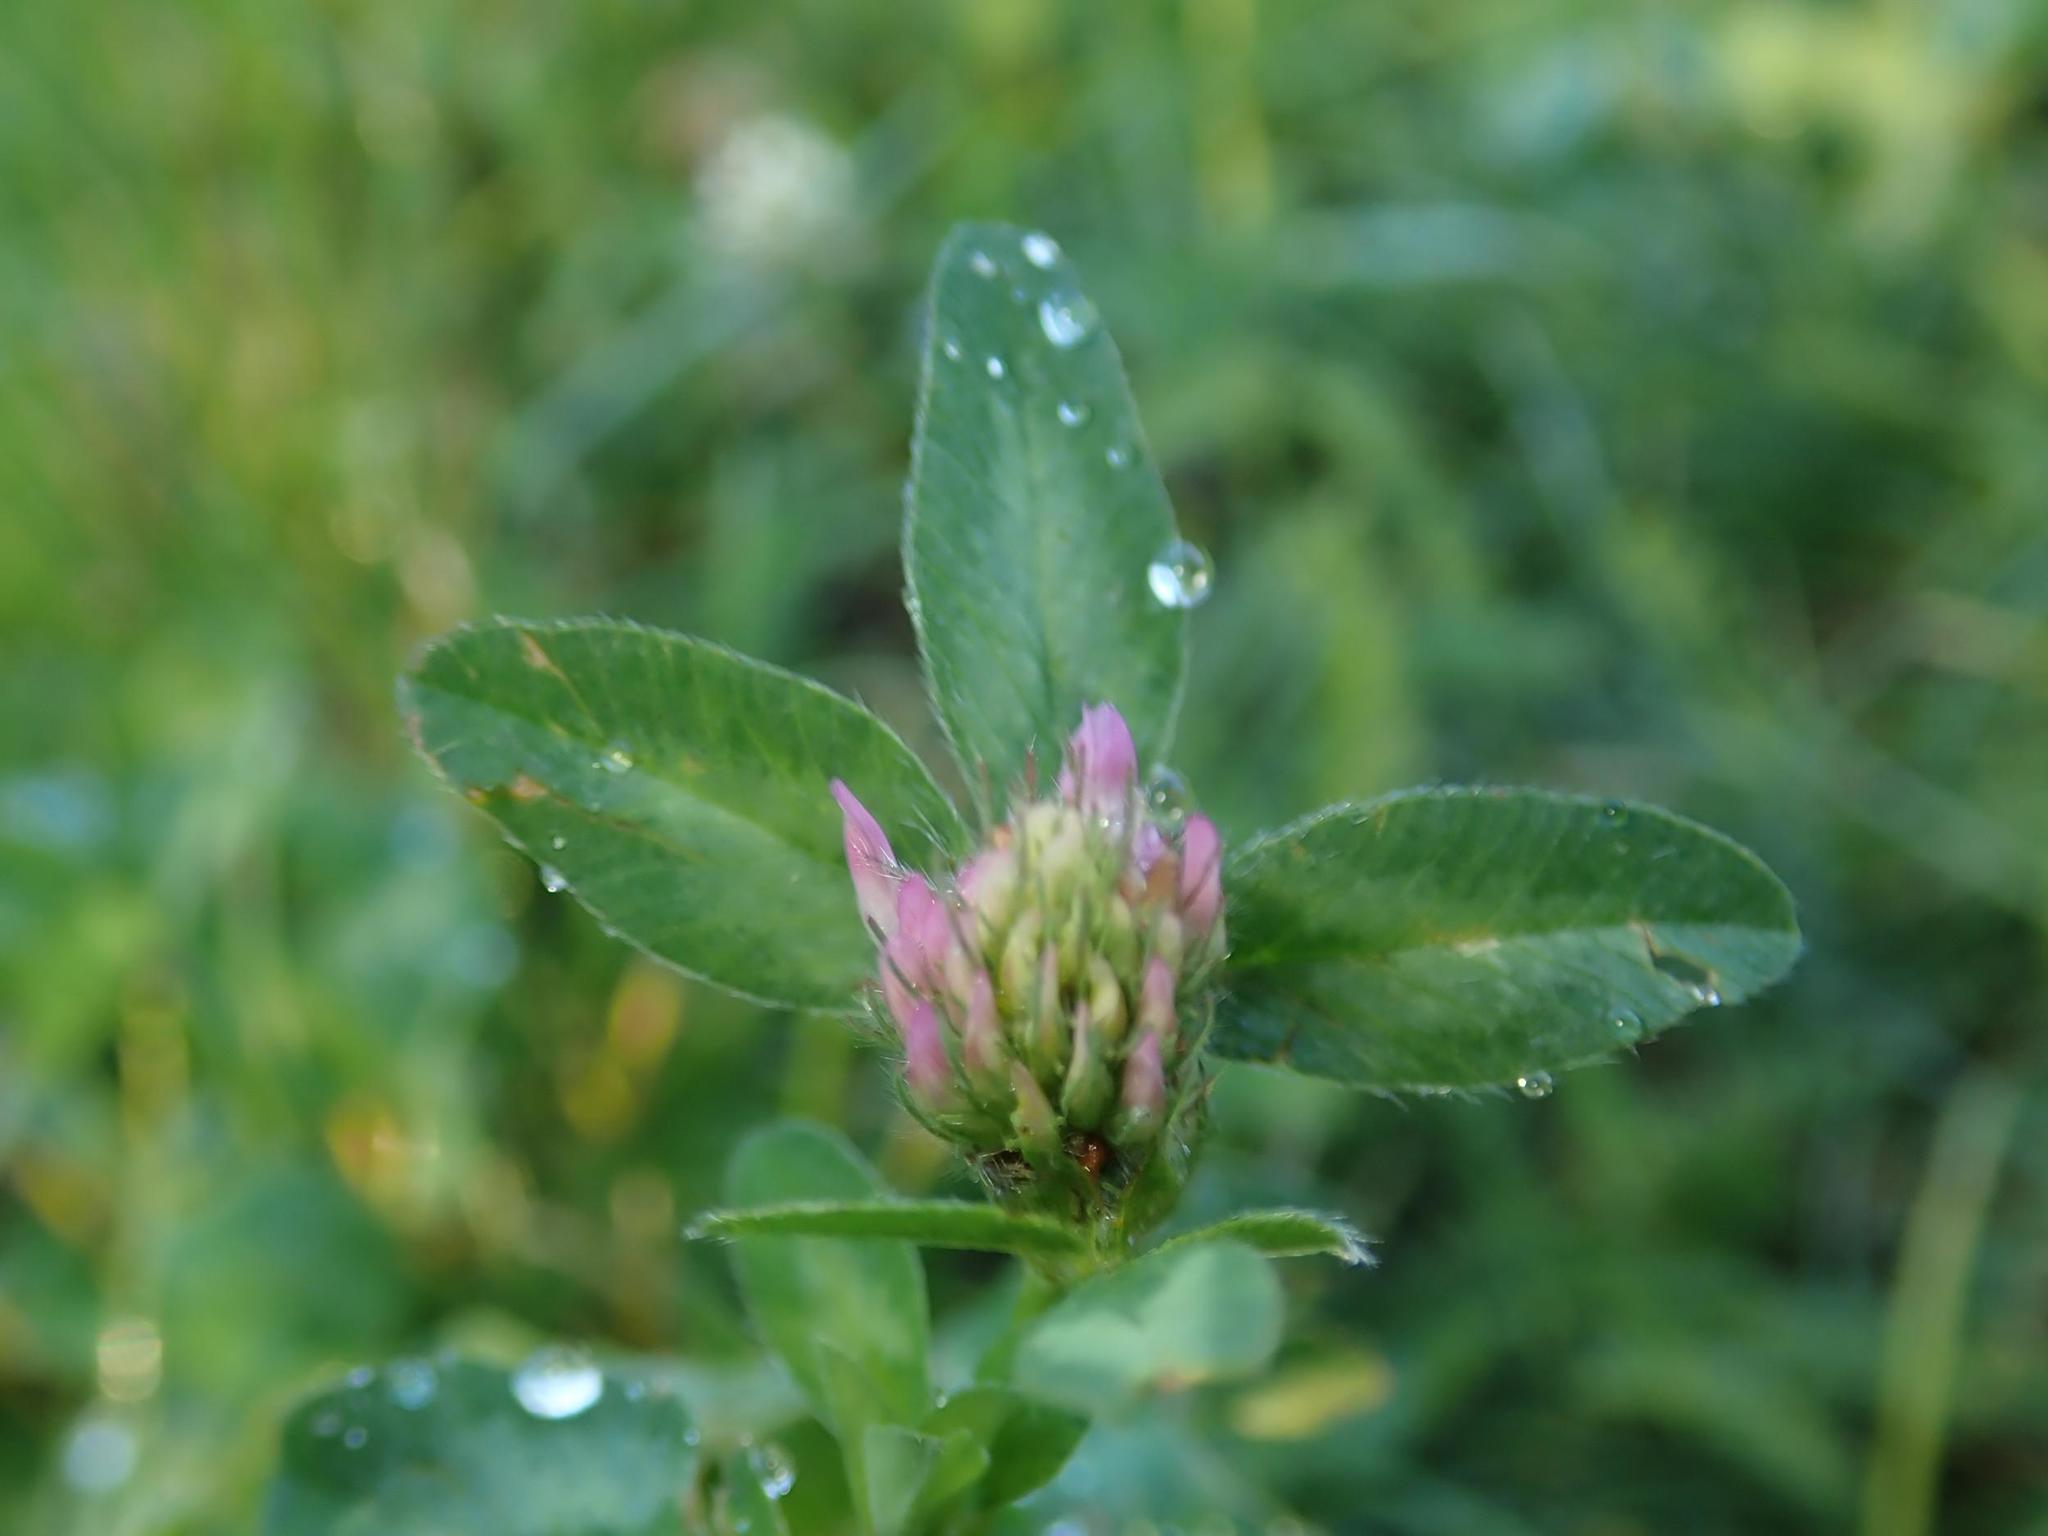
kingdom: Plantae
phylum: Tracheophyta
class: Magnoliopsida
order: Fabales
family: Fabaceae
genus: Trifolium
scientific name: Trifolium pratense
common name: Red clover
